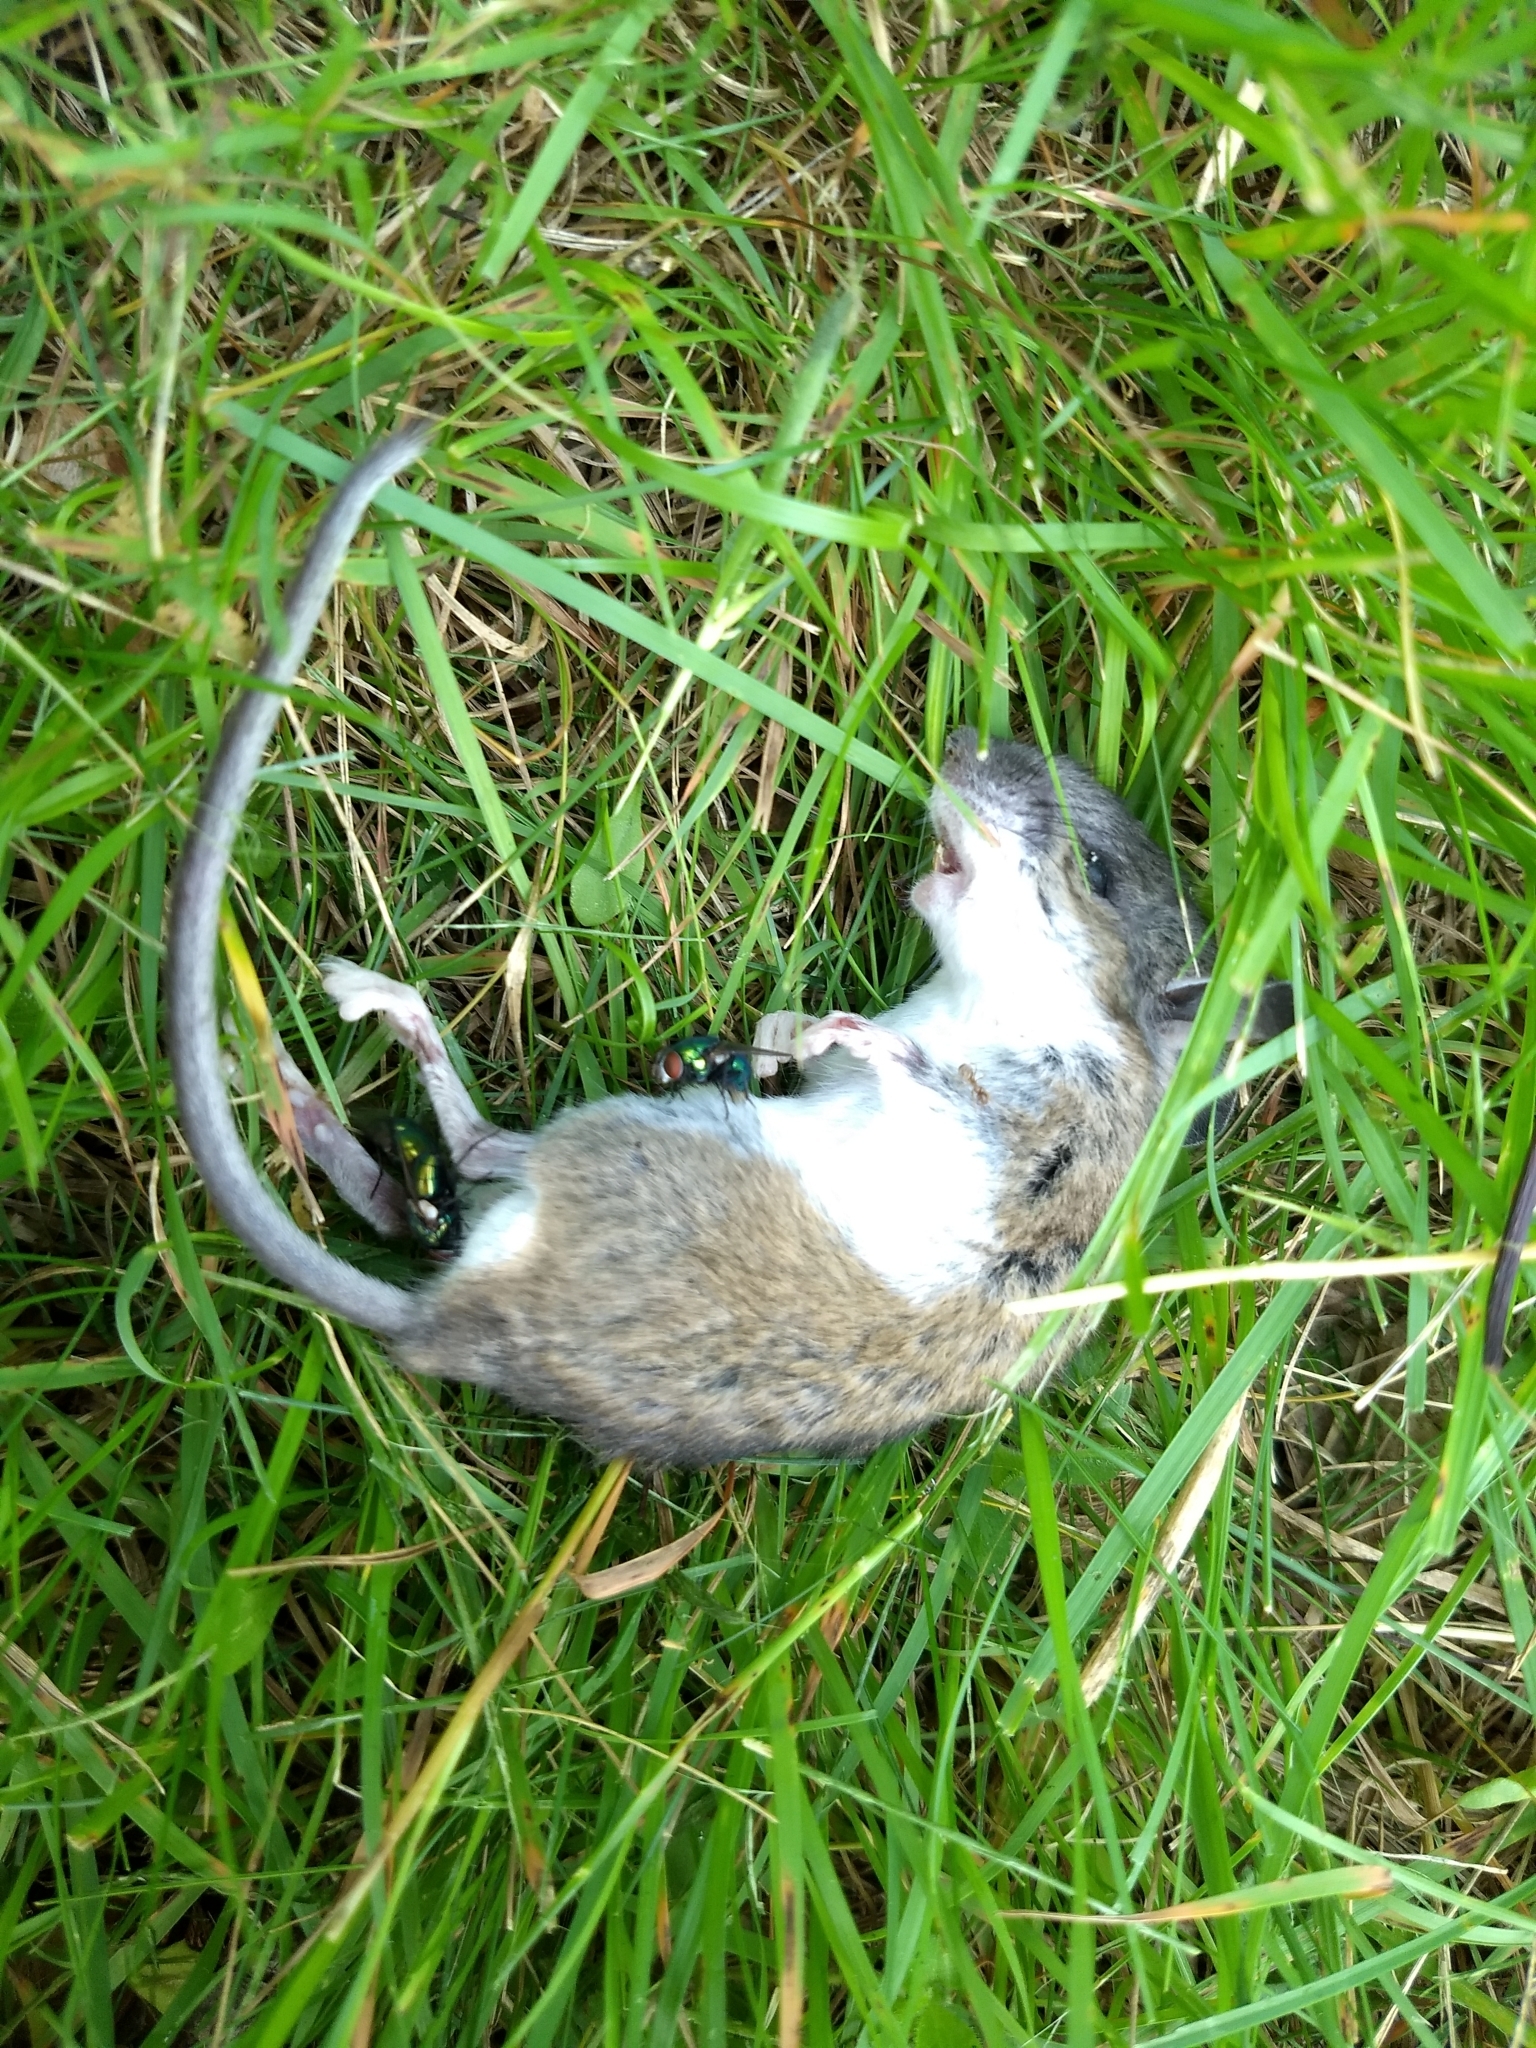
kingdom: Animalia
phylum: Chordata
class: Mammalia
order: Rodentia
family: Cricetidae
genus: Peromyscus
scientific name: Peromyscus
